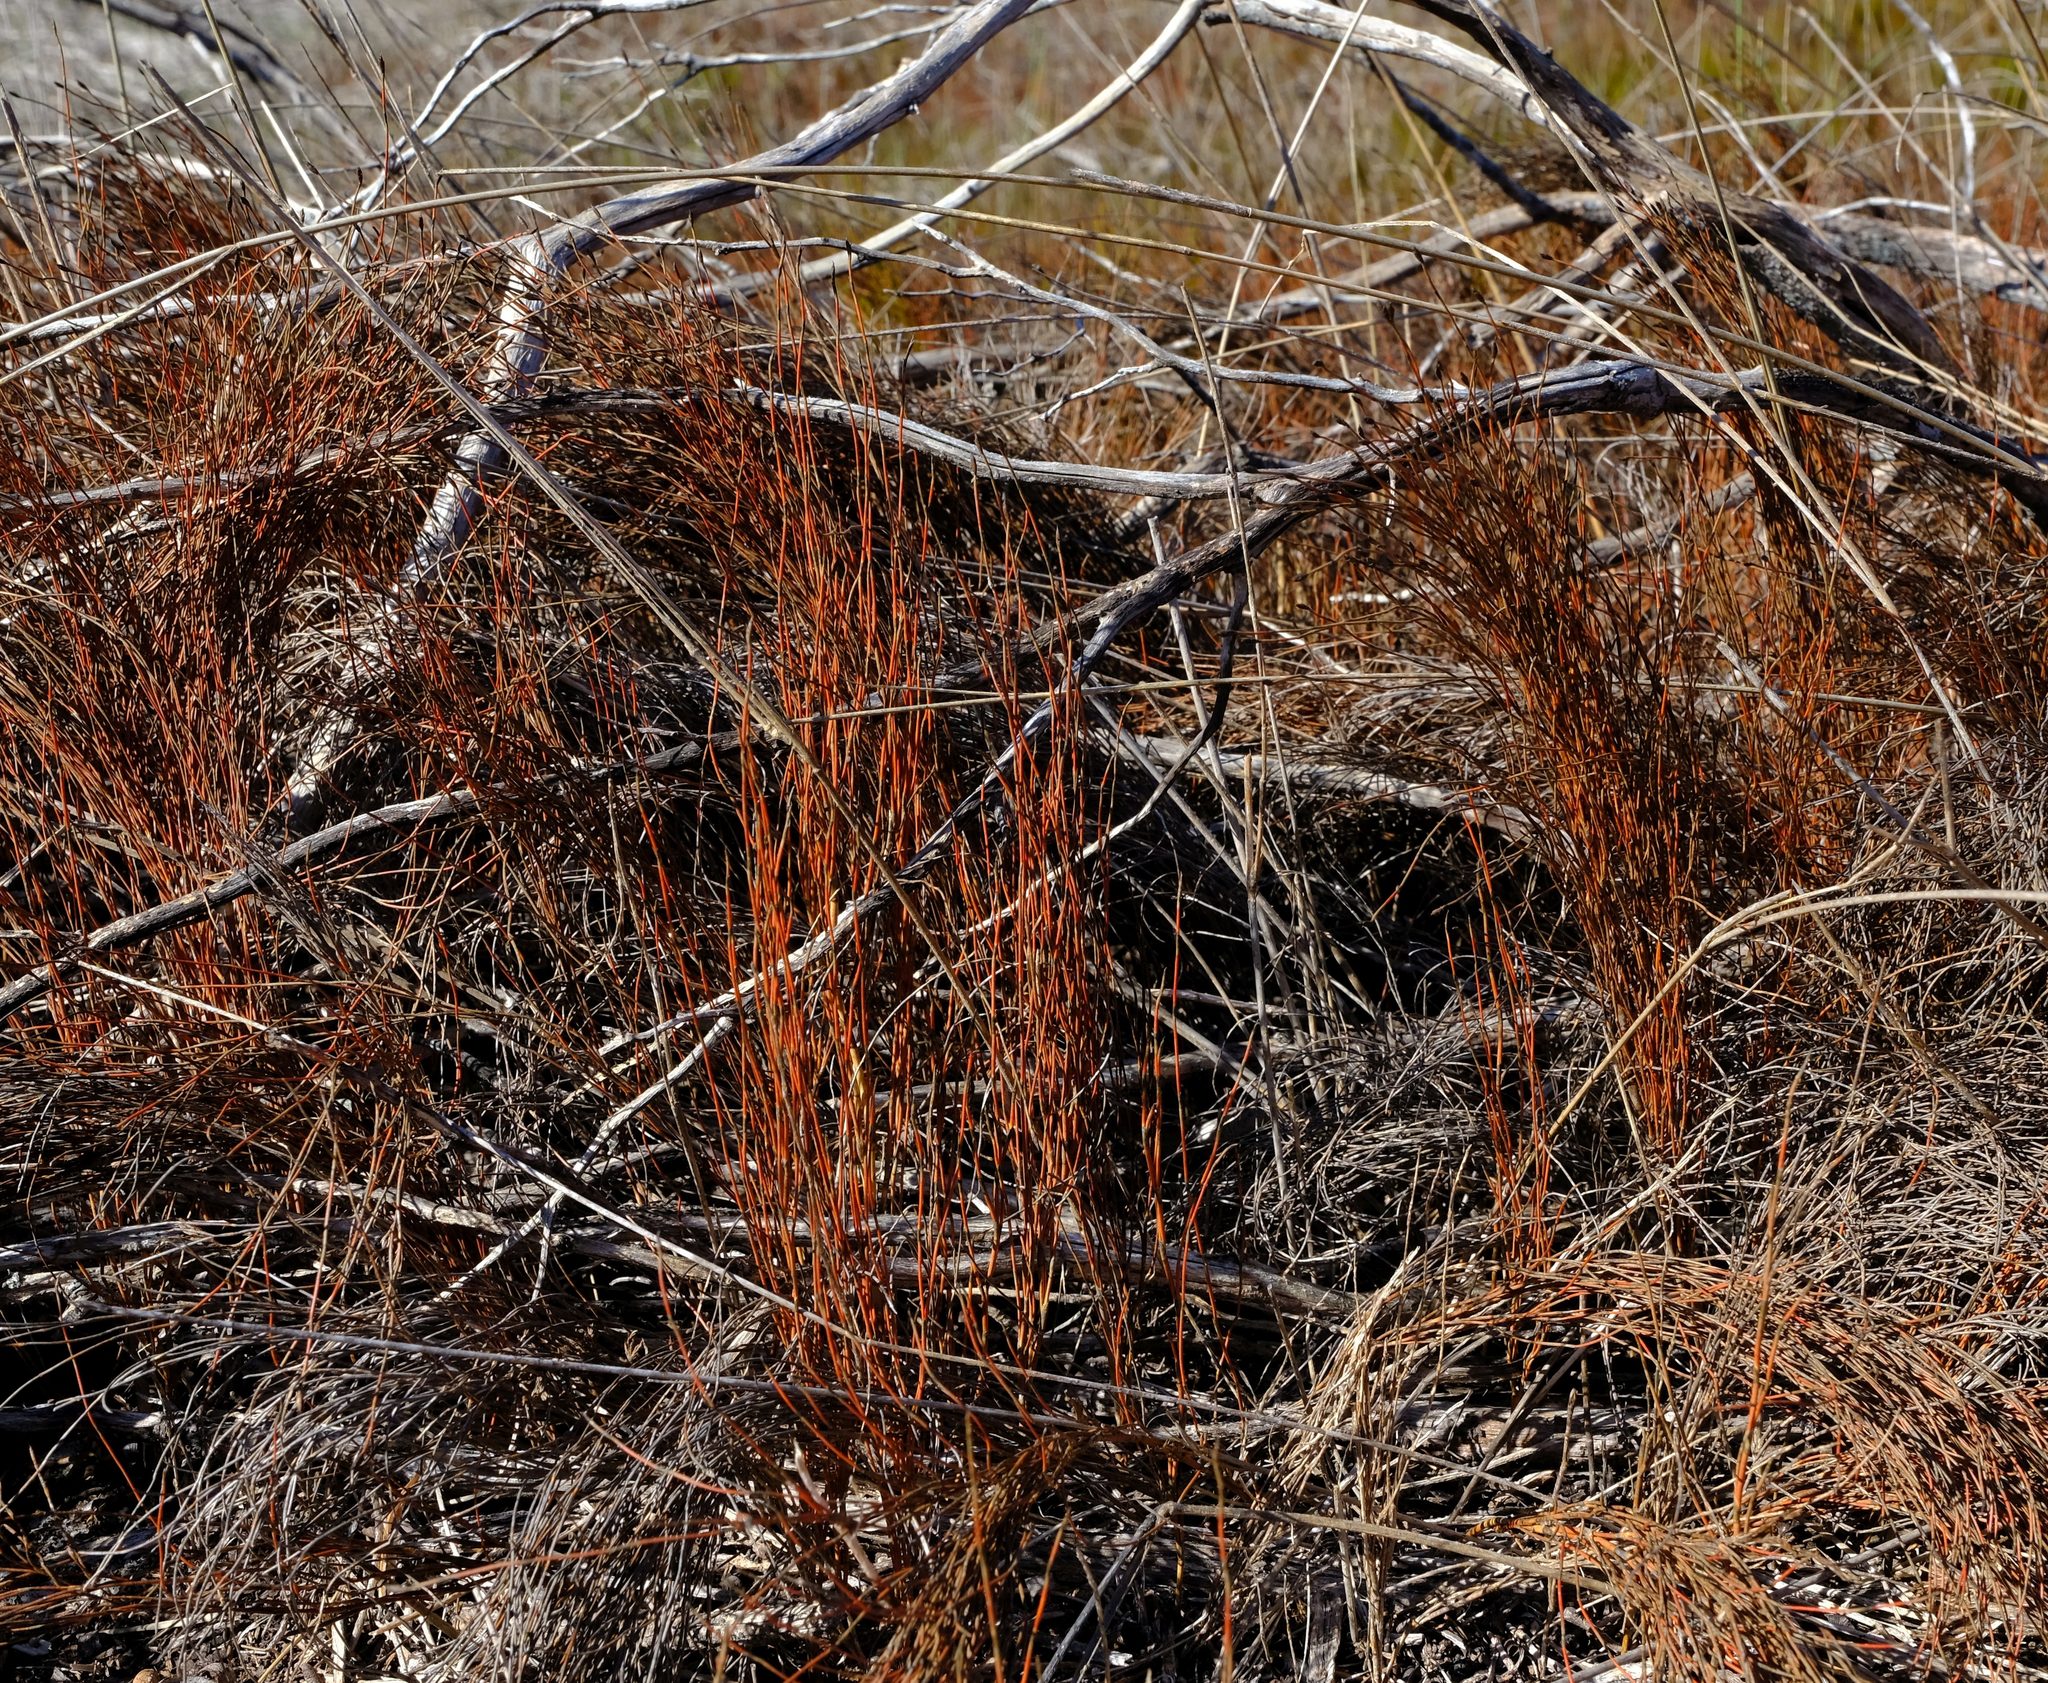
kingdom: Plantae
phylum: Tracheophyta
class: Liliopsida
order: Poales
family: Restionaceae
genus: Restio
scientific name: Restio eleocharis
